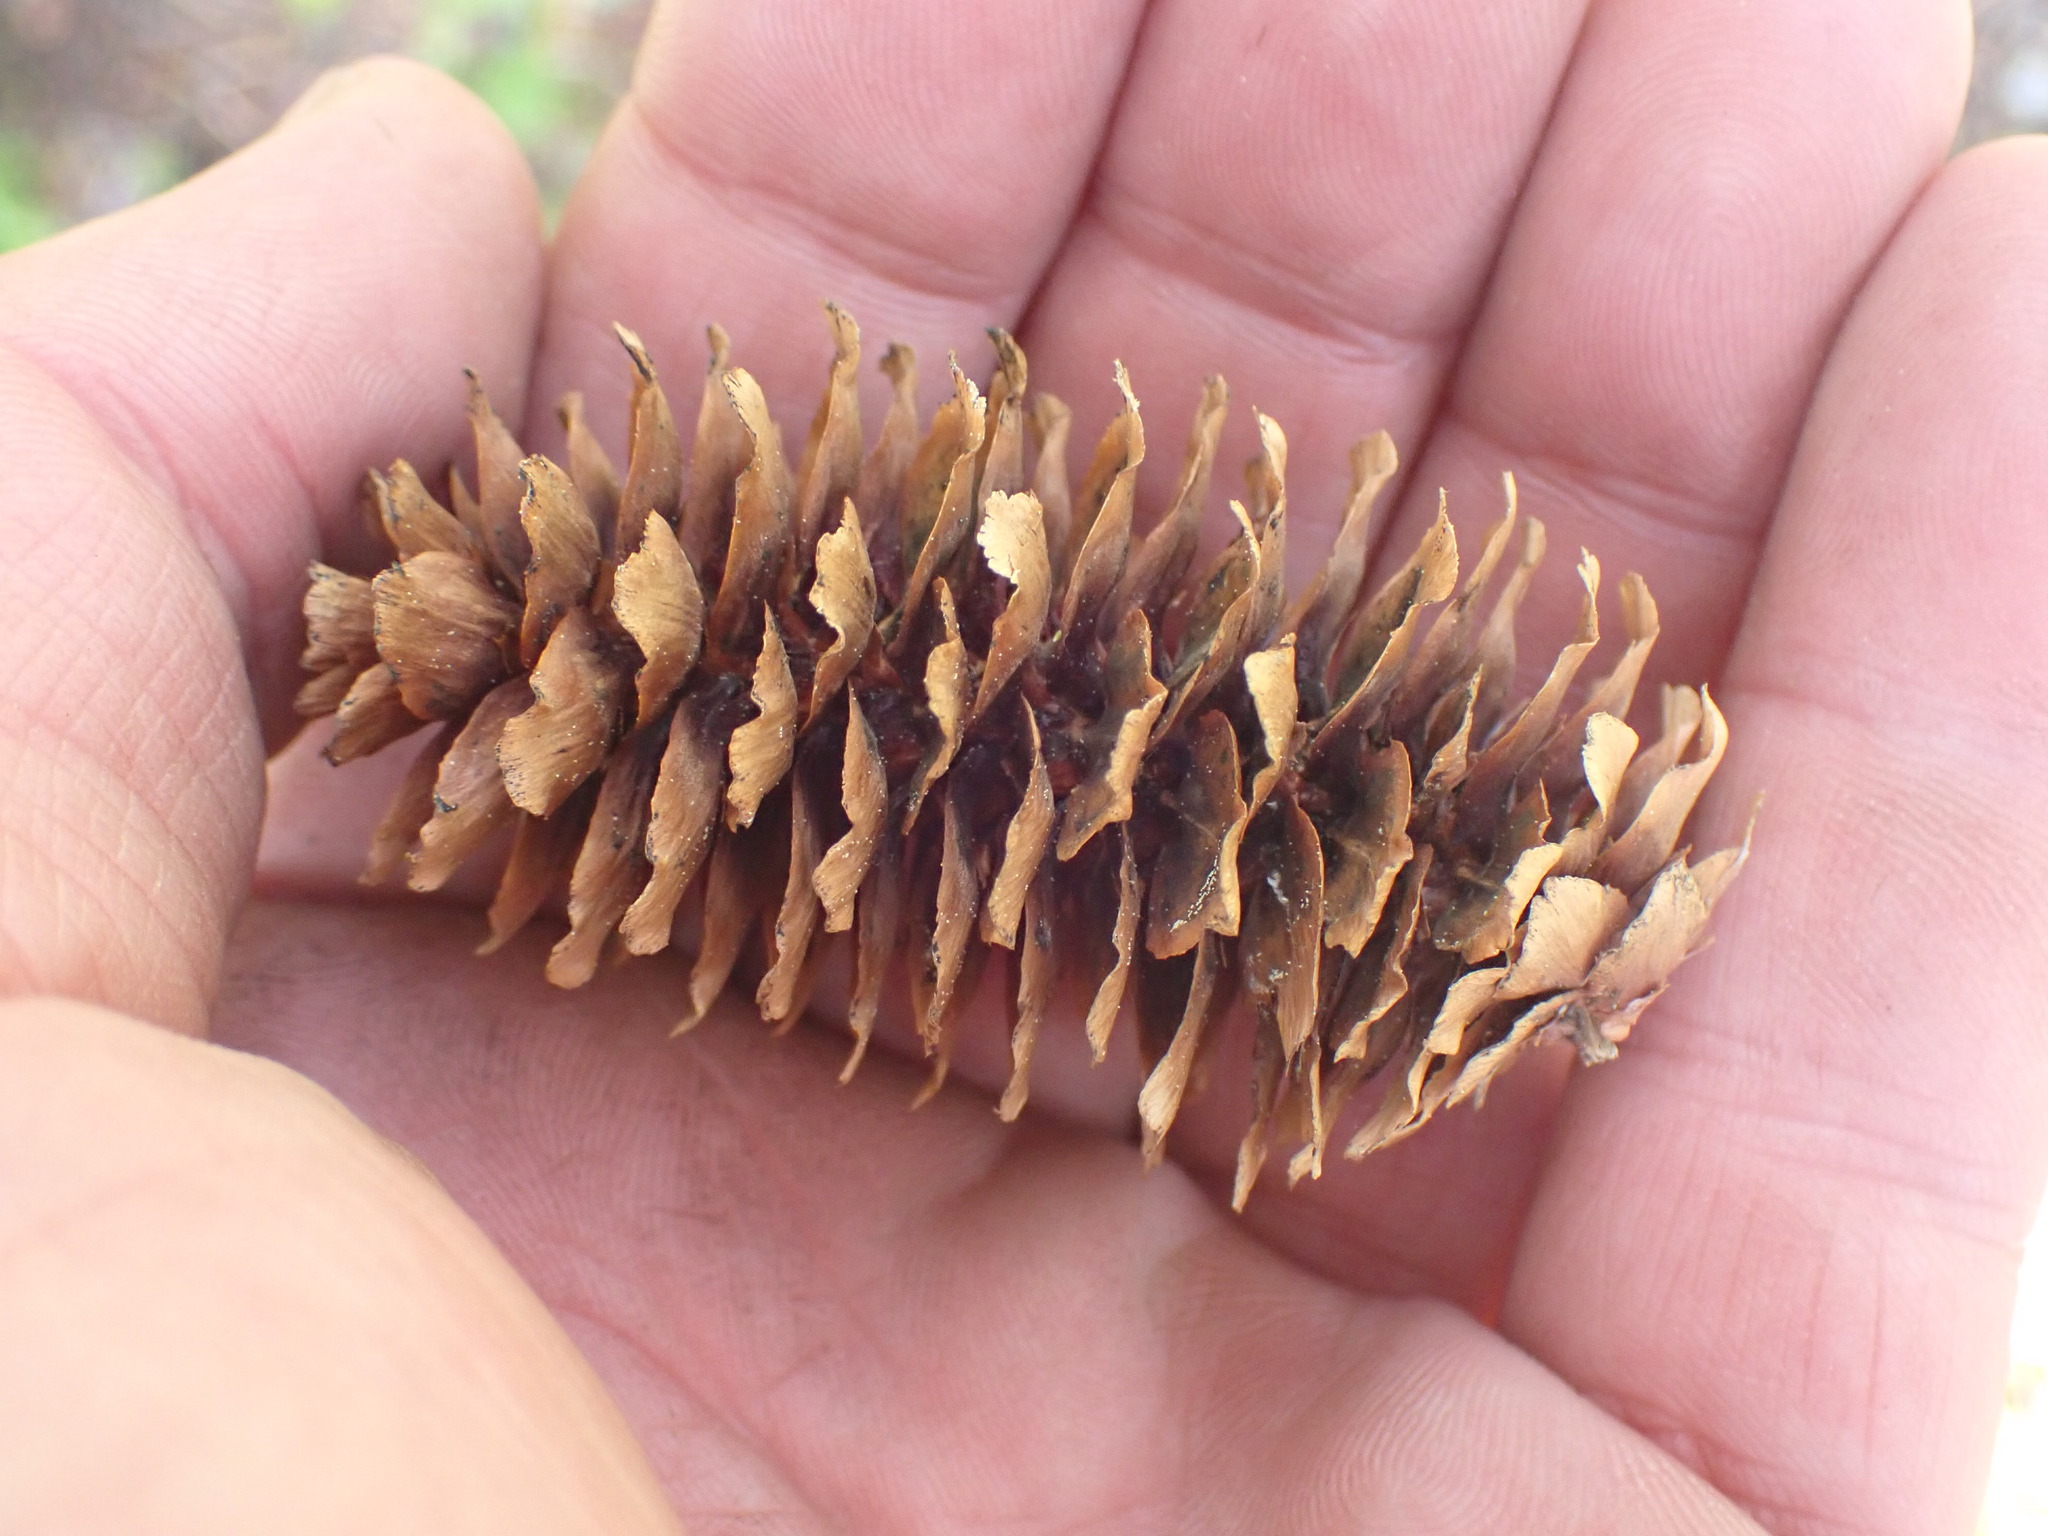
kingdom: Plantae
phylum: Tracheophyta
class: Pinopsida
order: Pinales
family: Pinaceae
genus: Picea
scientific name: Picea engelmannii
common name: Engelmann spruce
